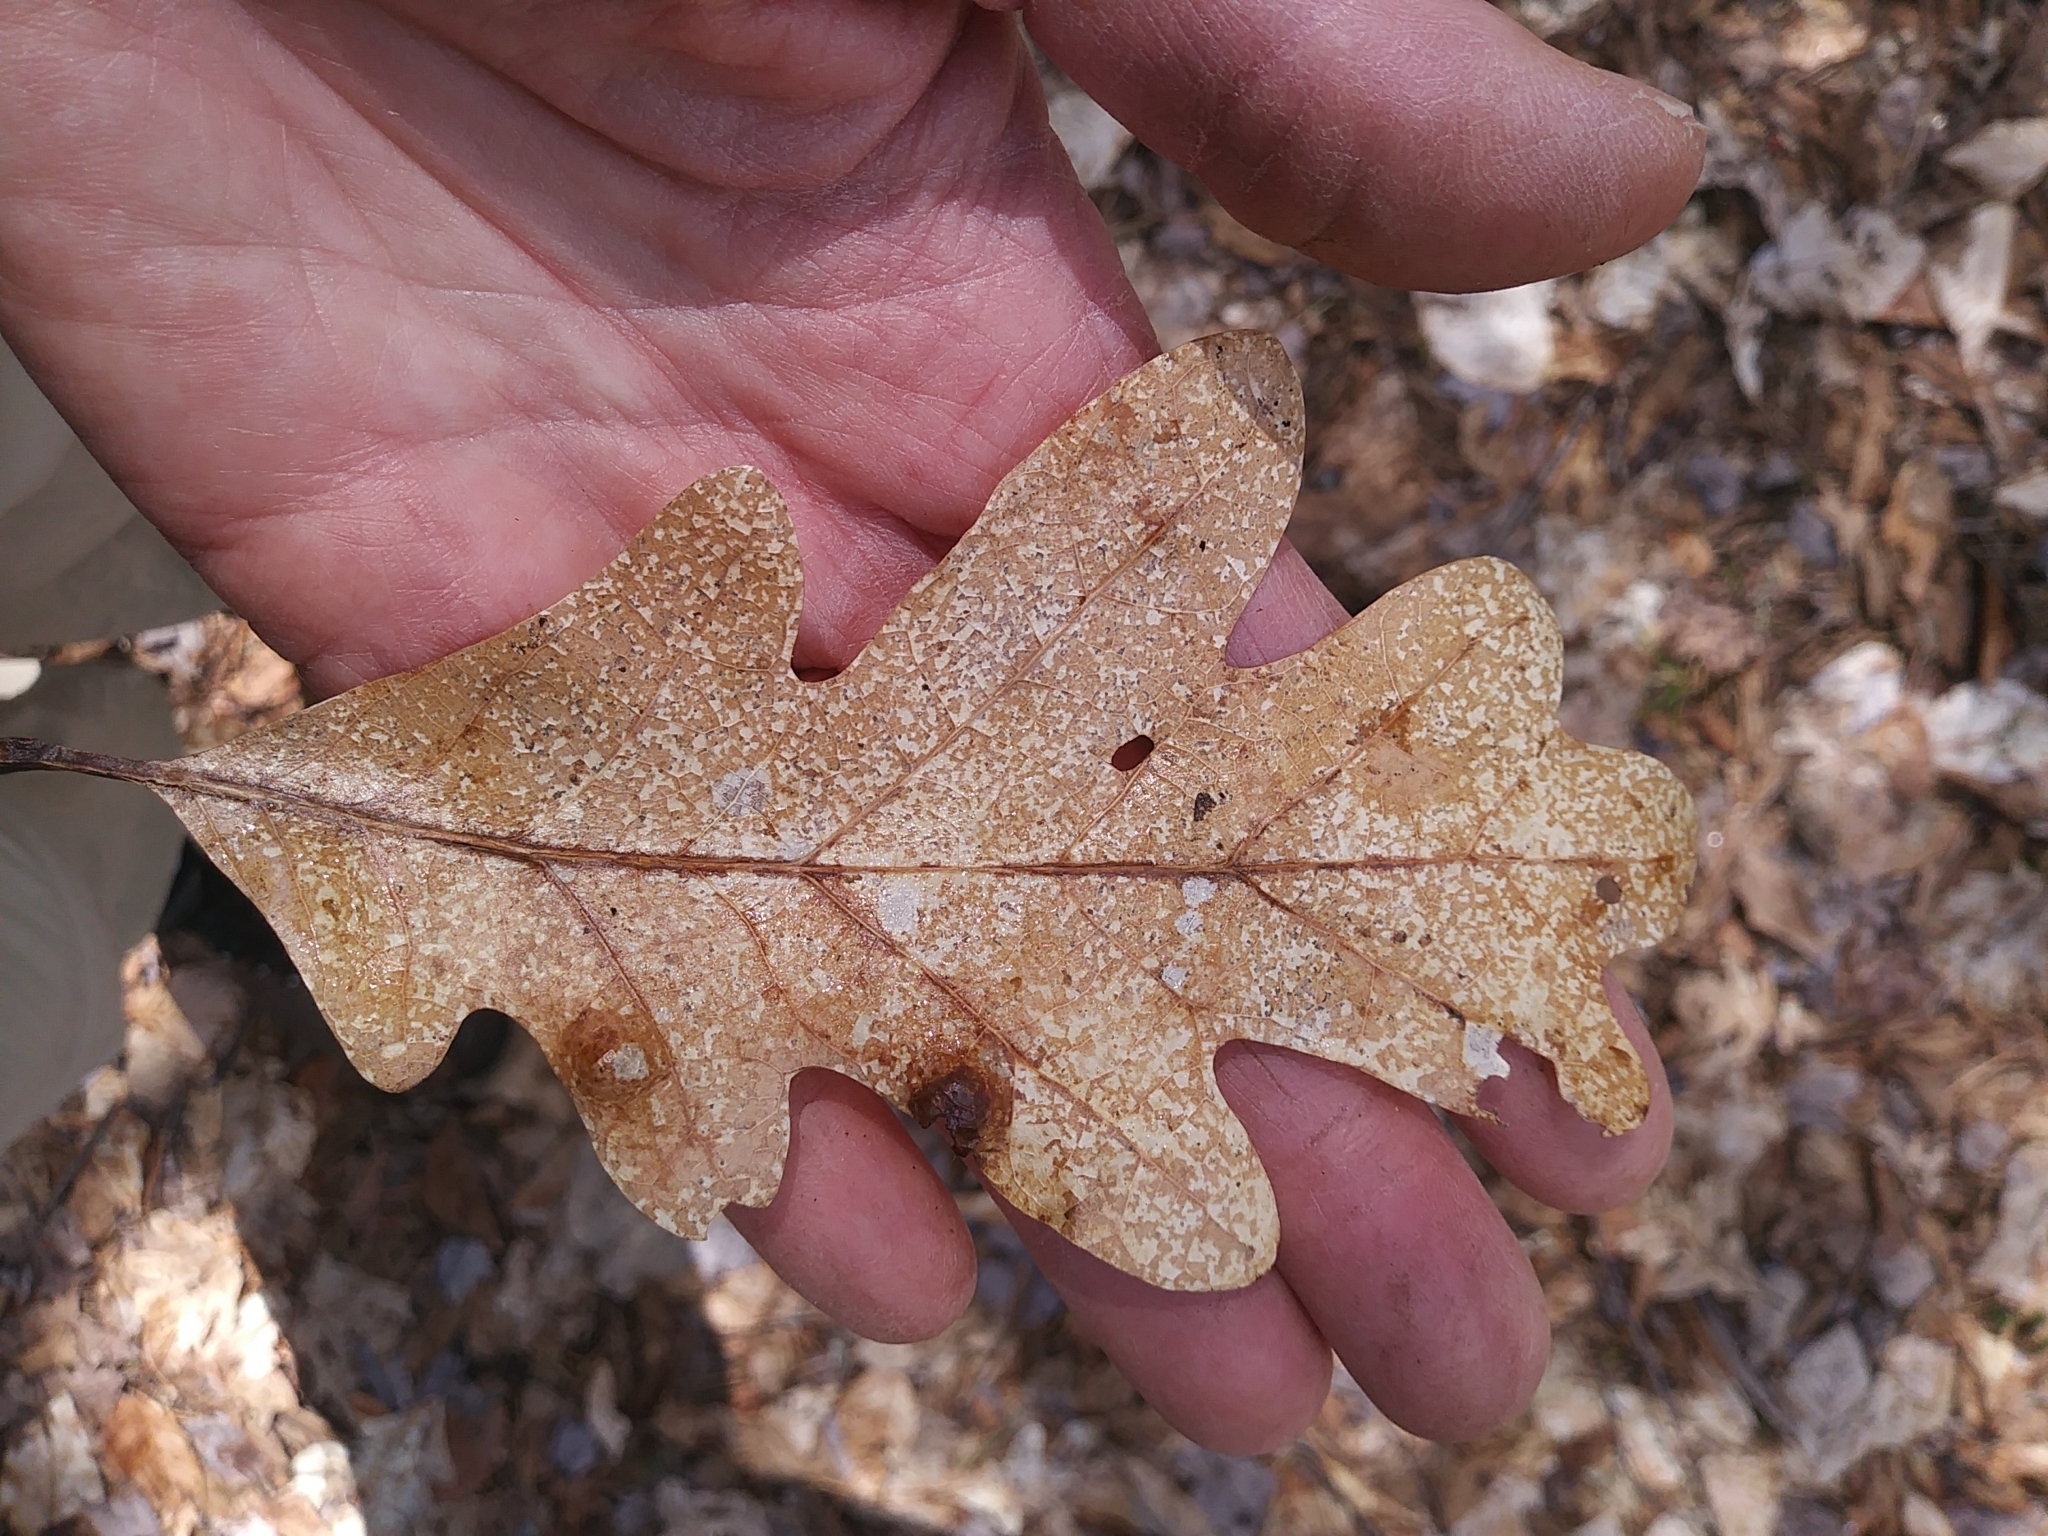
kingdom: Plantae
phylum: Tracheophyta
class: Magnoliopsida
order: Fagales
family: Fagaceae
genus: Quercus
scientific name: Quercus alba
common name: White oak
